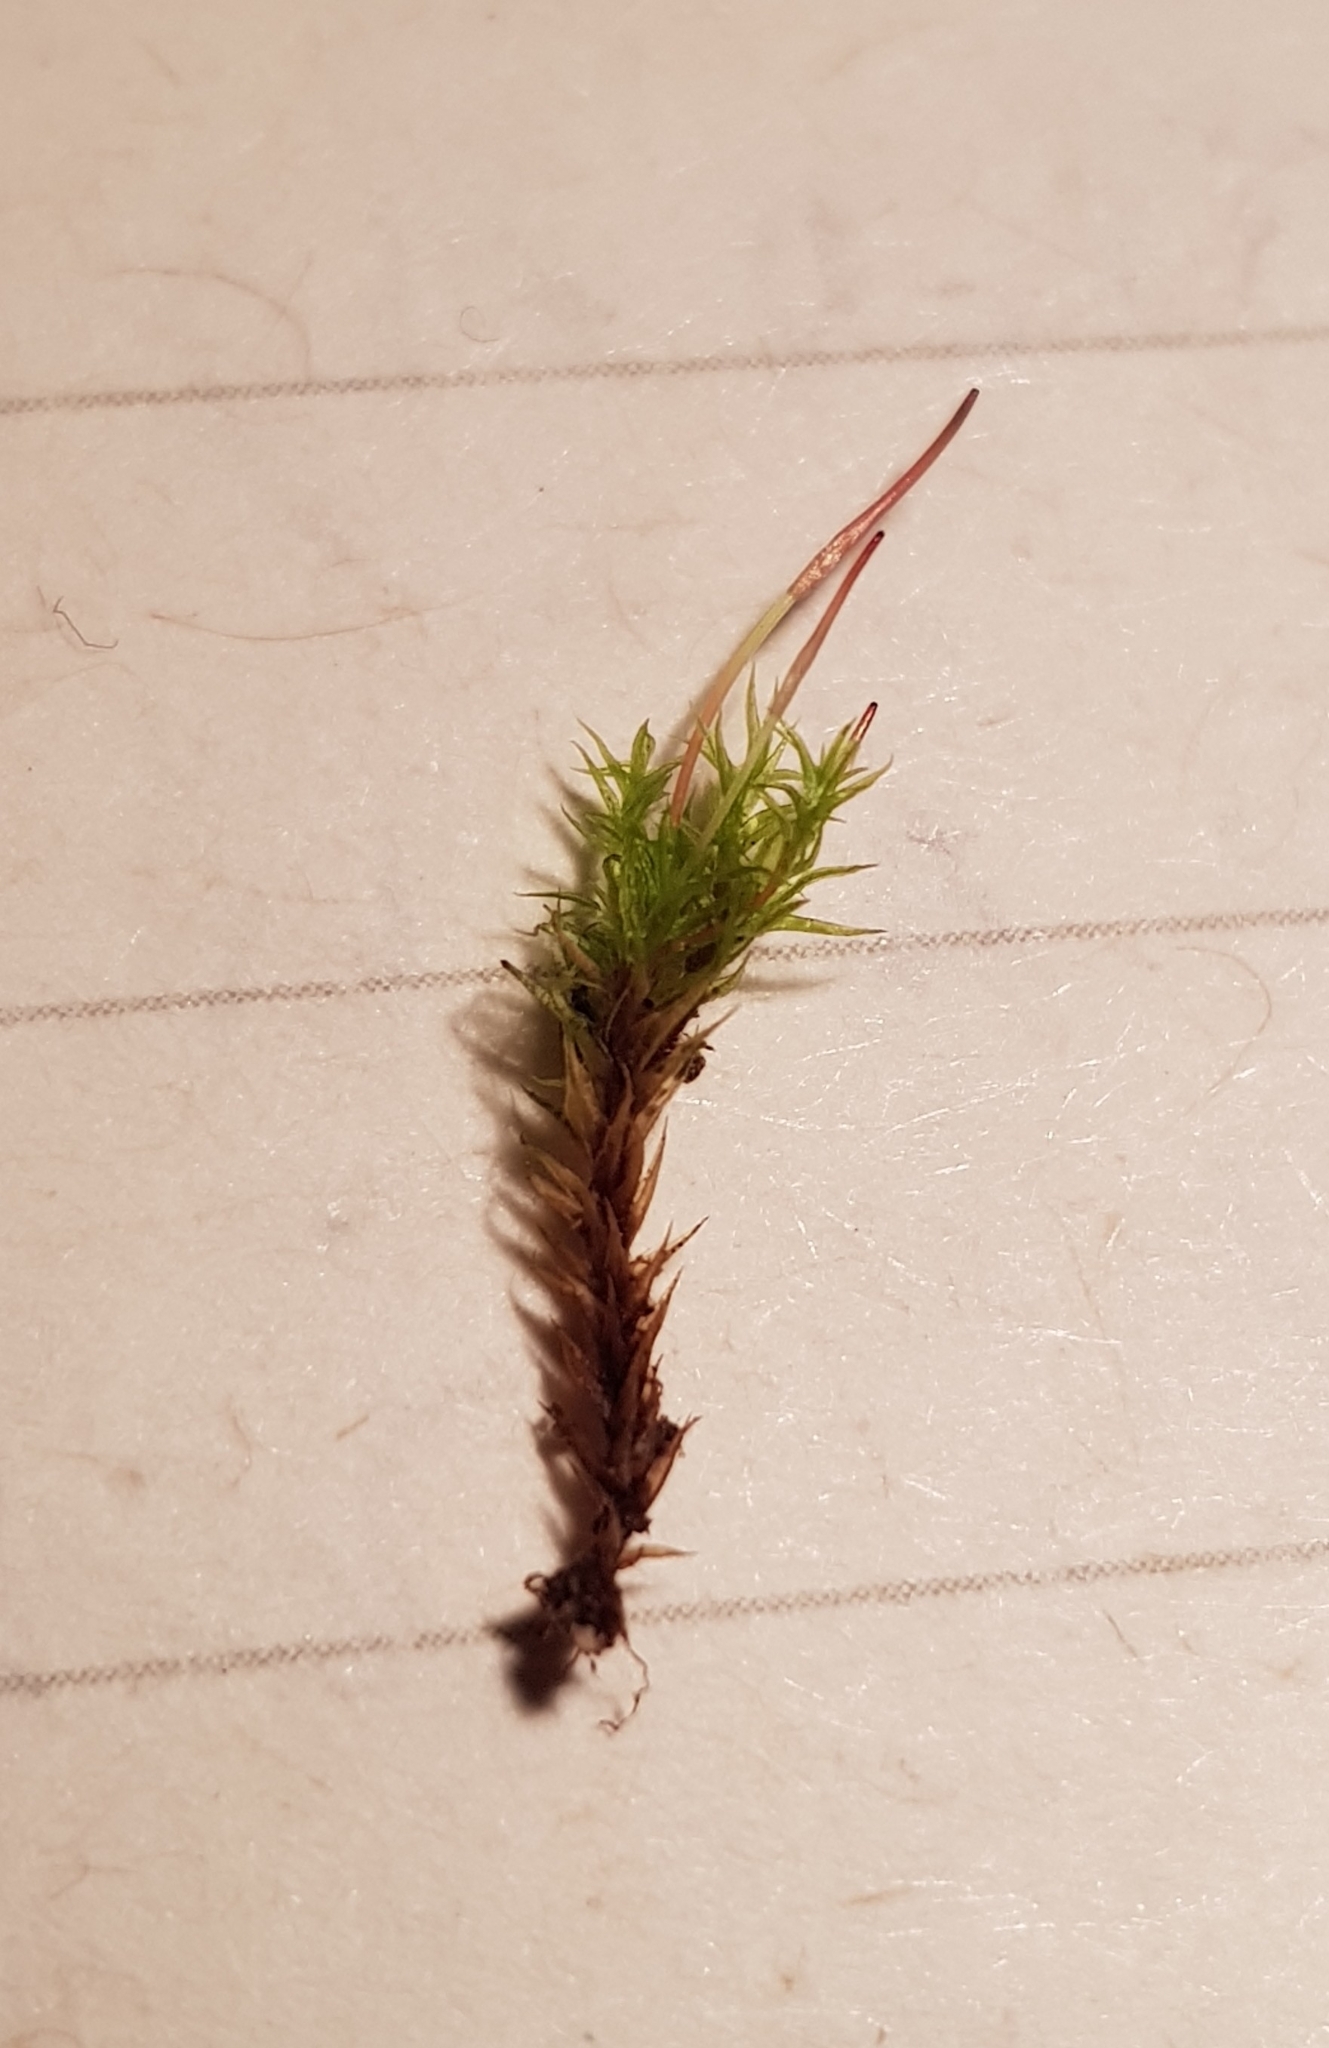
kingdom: Plantae
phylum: Bryophyta
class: Bryopsida
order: Dicranales
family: Ditrichaceae
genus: Ceratodon
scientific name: Ceratodon purpureus
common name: Redshank
